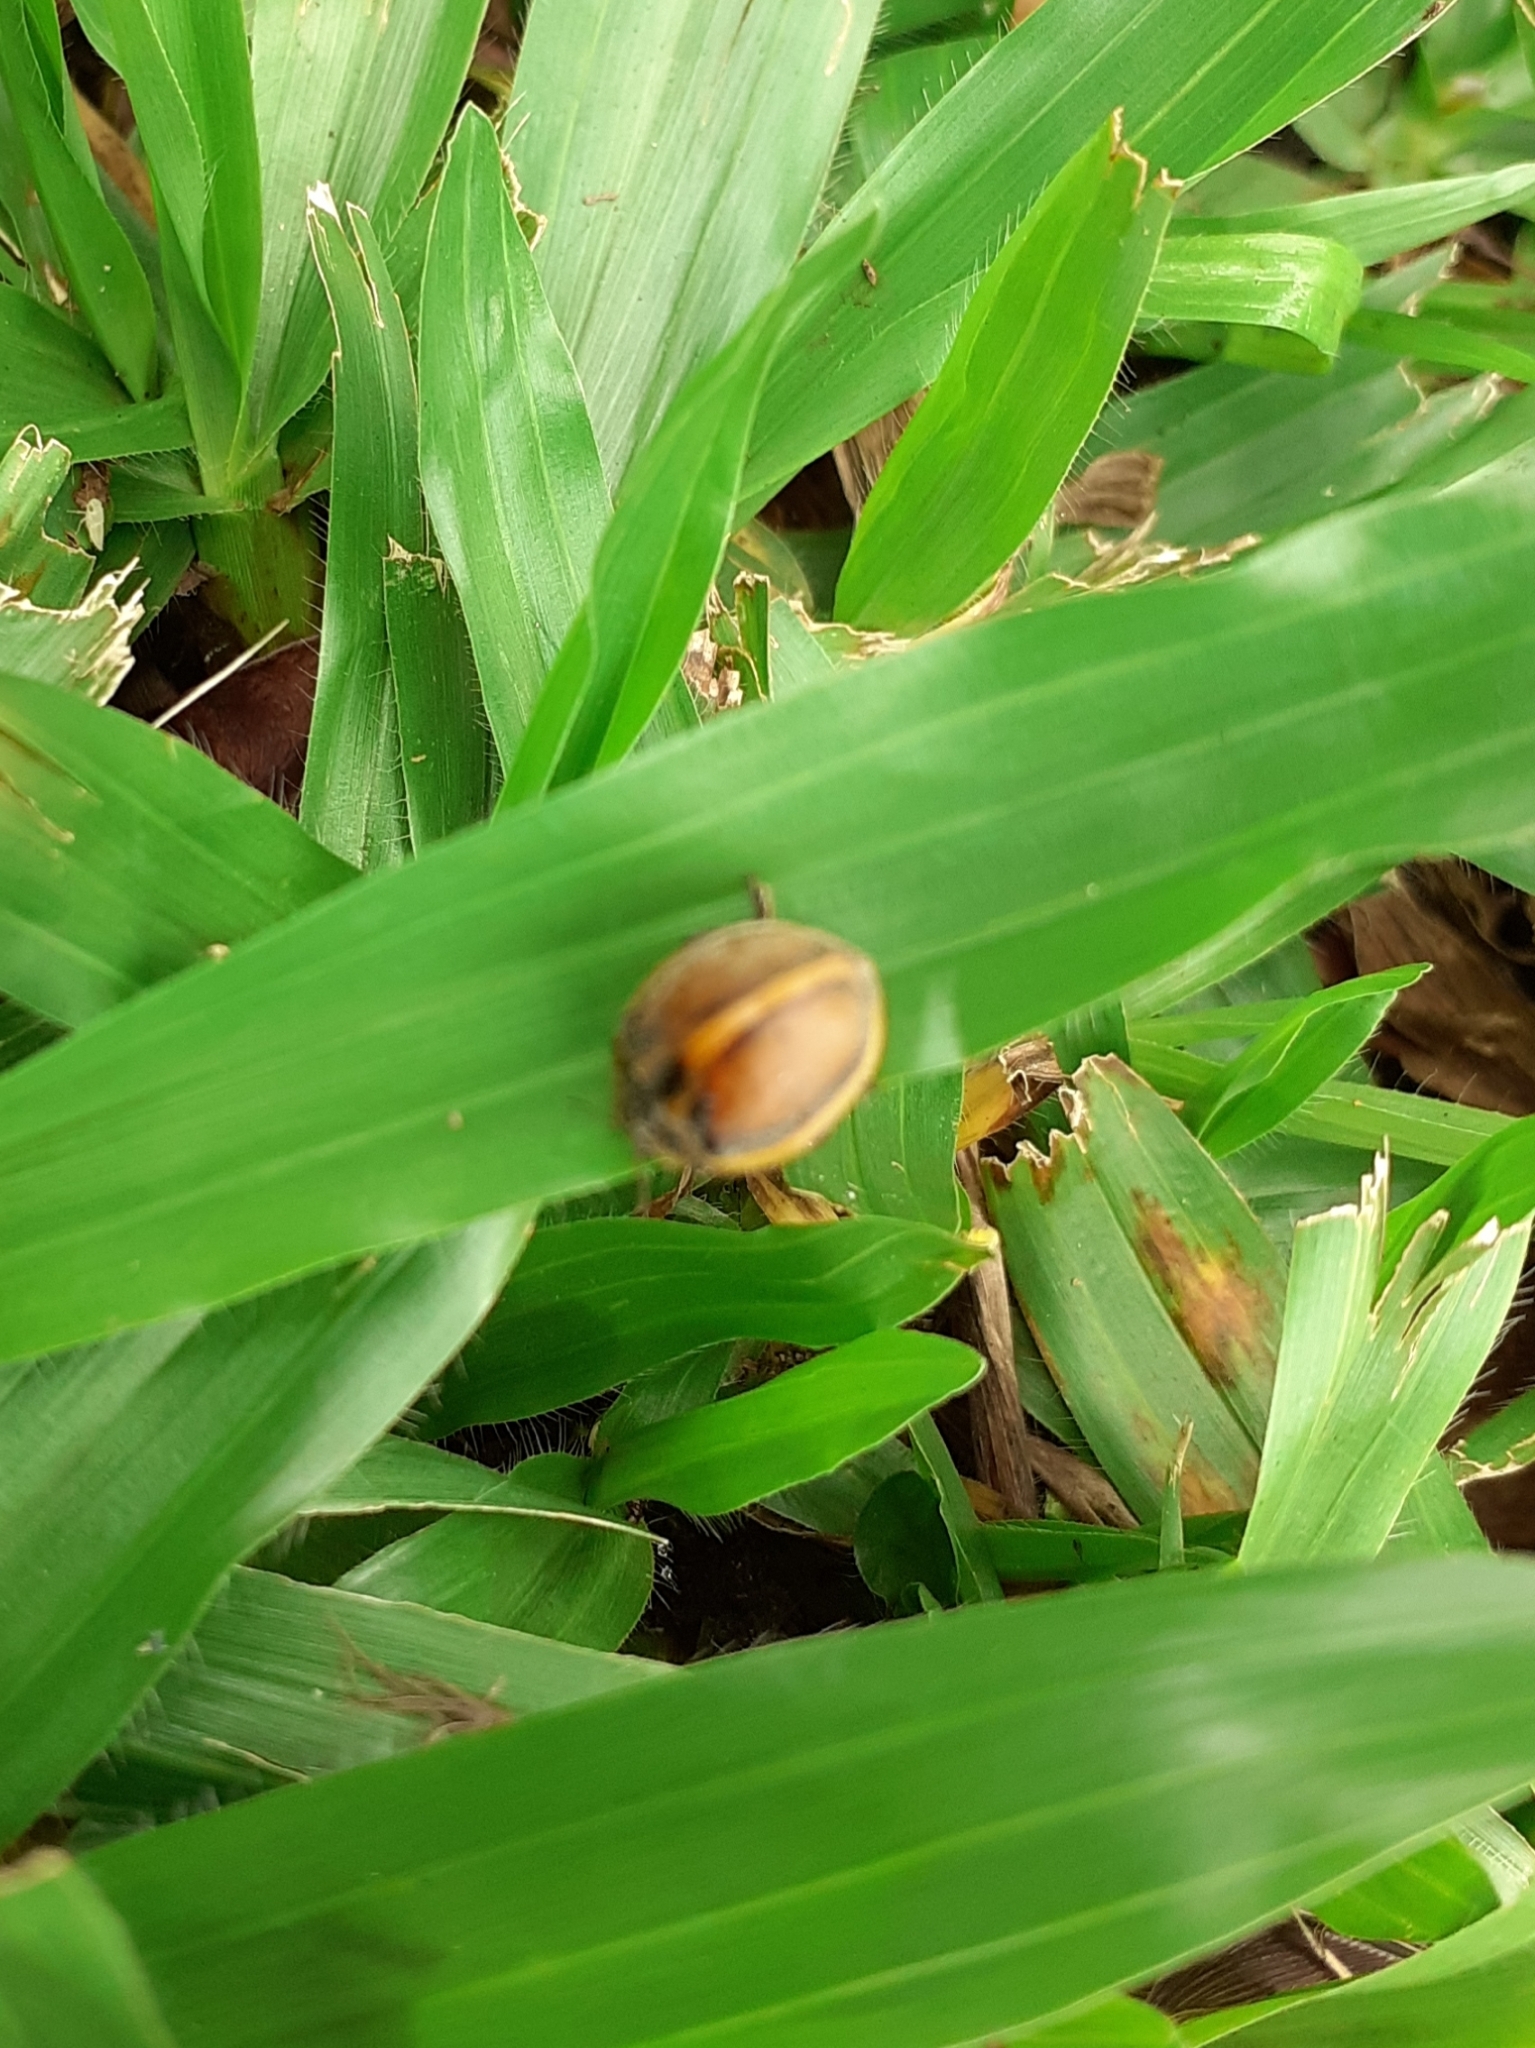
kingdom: Animalia
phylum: Arthropoda
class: Insecta
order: Coleoptera
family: Coccinellidae
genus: Epilachna
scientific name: Epilachna
